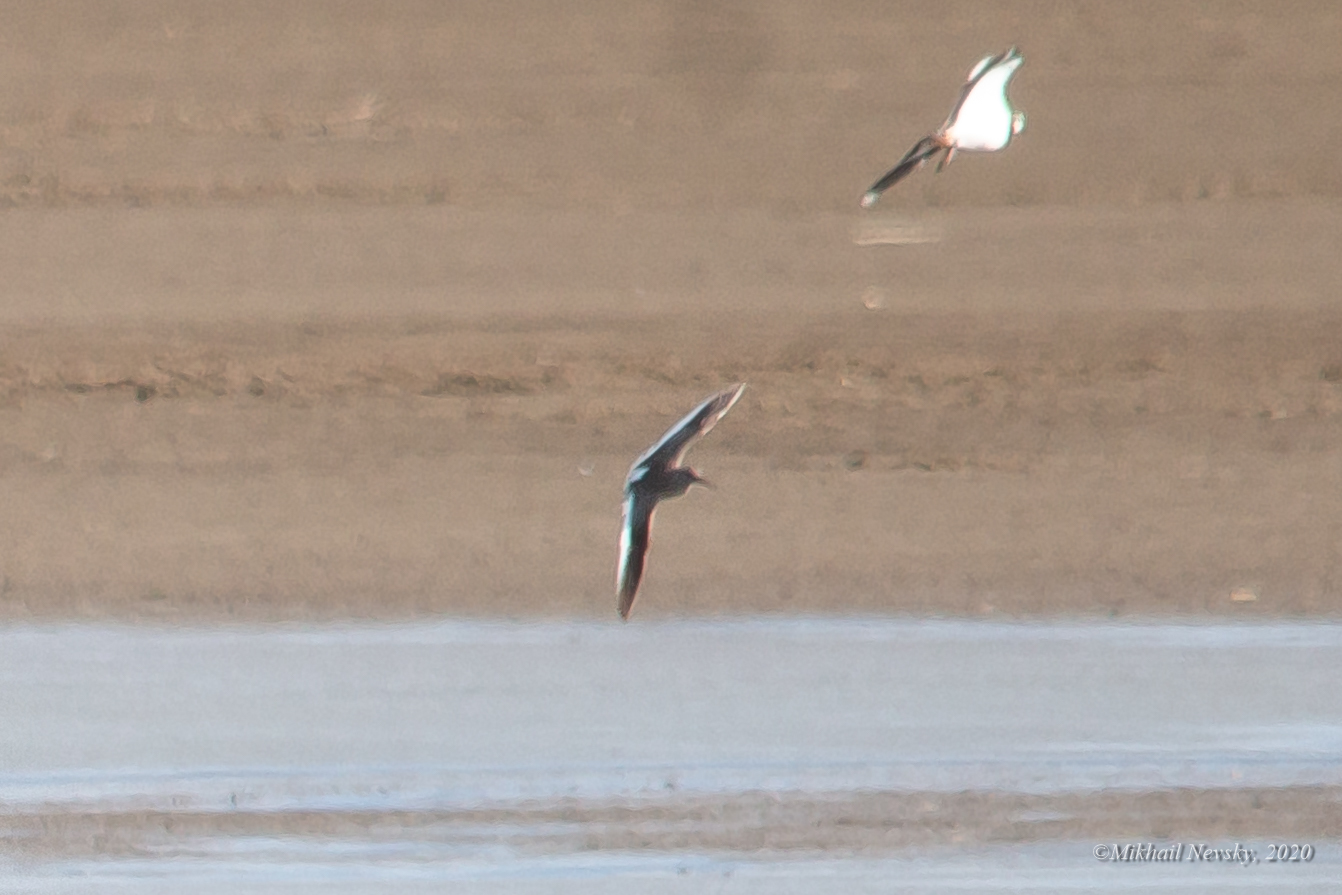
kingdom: Animalia
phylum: Chordata
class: Aves
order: Charadriiformes
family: Scolopacidae
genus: Tringa
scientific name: Tringa totanus
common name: Common redshank
